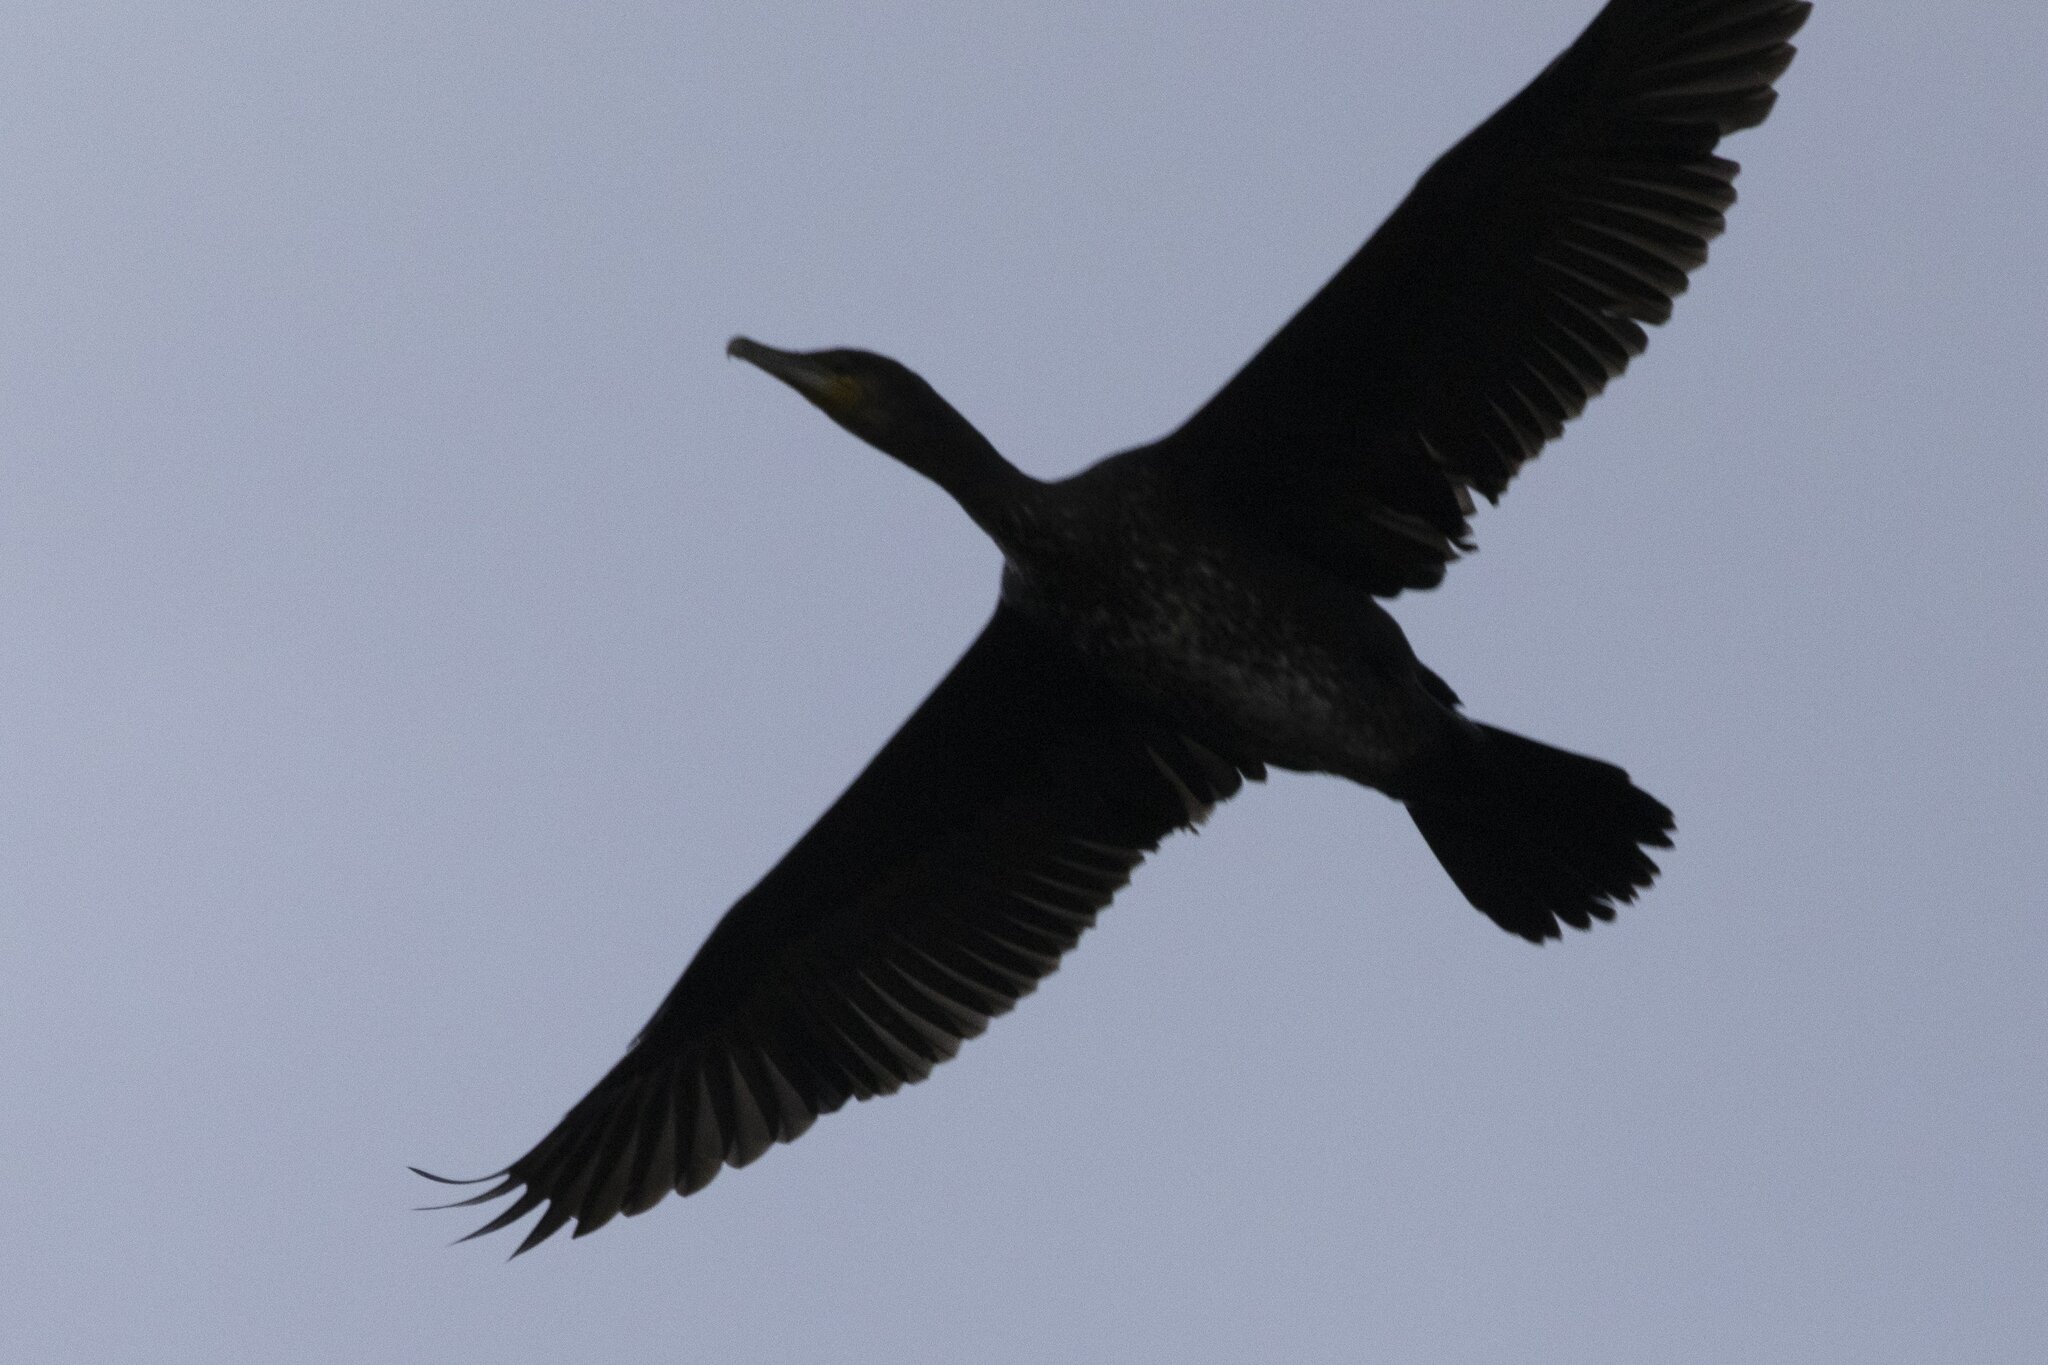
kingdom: Animalia
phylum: Chordata
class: Aves
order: Suliformes
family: Phalacrocoracidae
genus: Phalacrocorax
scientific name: Phalacrocorax carbo
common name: Great cormorant
